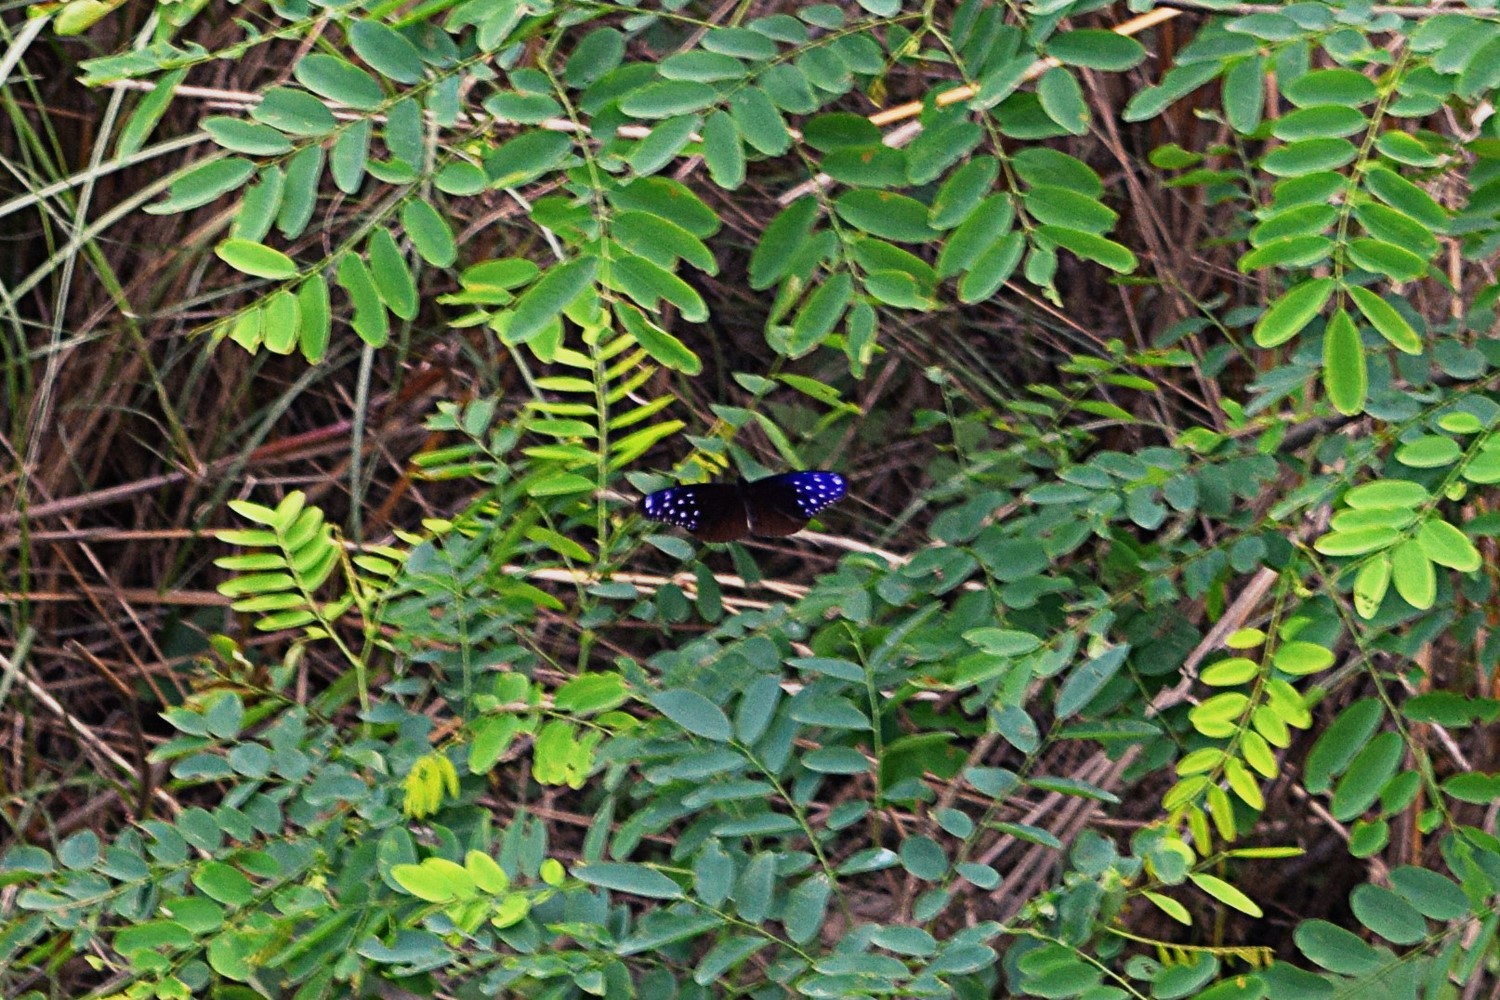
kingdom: Animalia
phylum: Arthropoda
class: Insecta
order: Lepidoptera
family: Nymphalidae
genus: Euploea
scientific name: Euploea mulciber
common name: Striped blue crow butterfly
